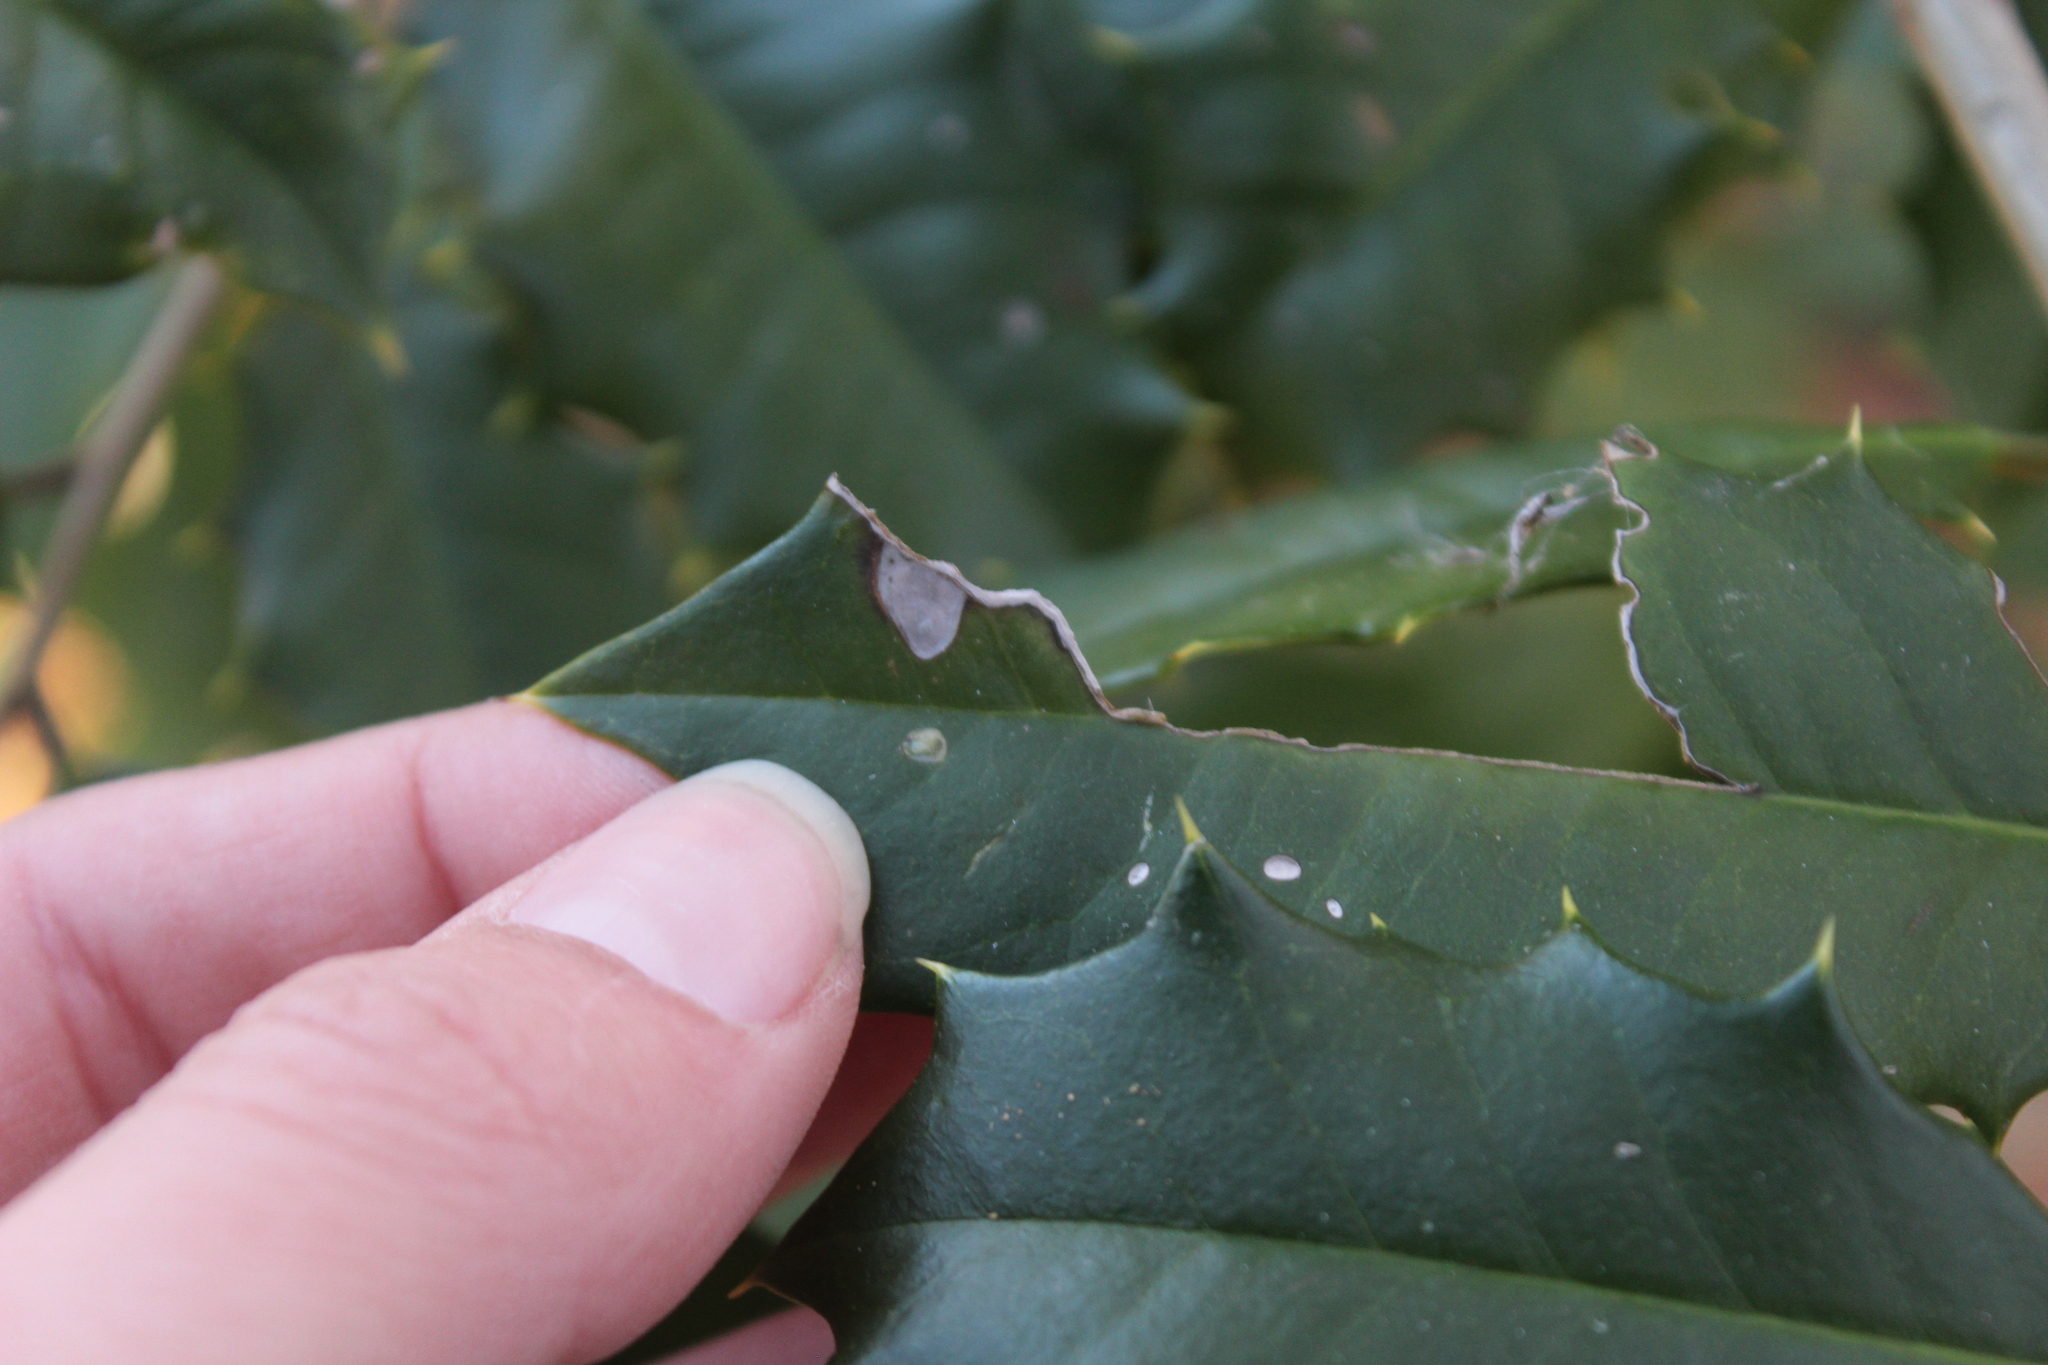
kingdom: Plantae
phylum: Tracheophyta
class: Magnoliopsida
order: Aquifoliales
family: Aquifoliaceae
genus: Ilex
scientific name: Ilex opaca
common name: American holly
